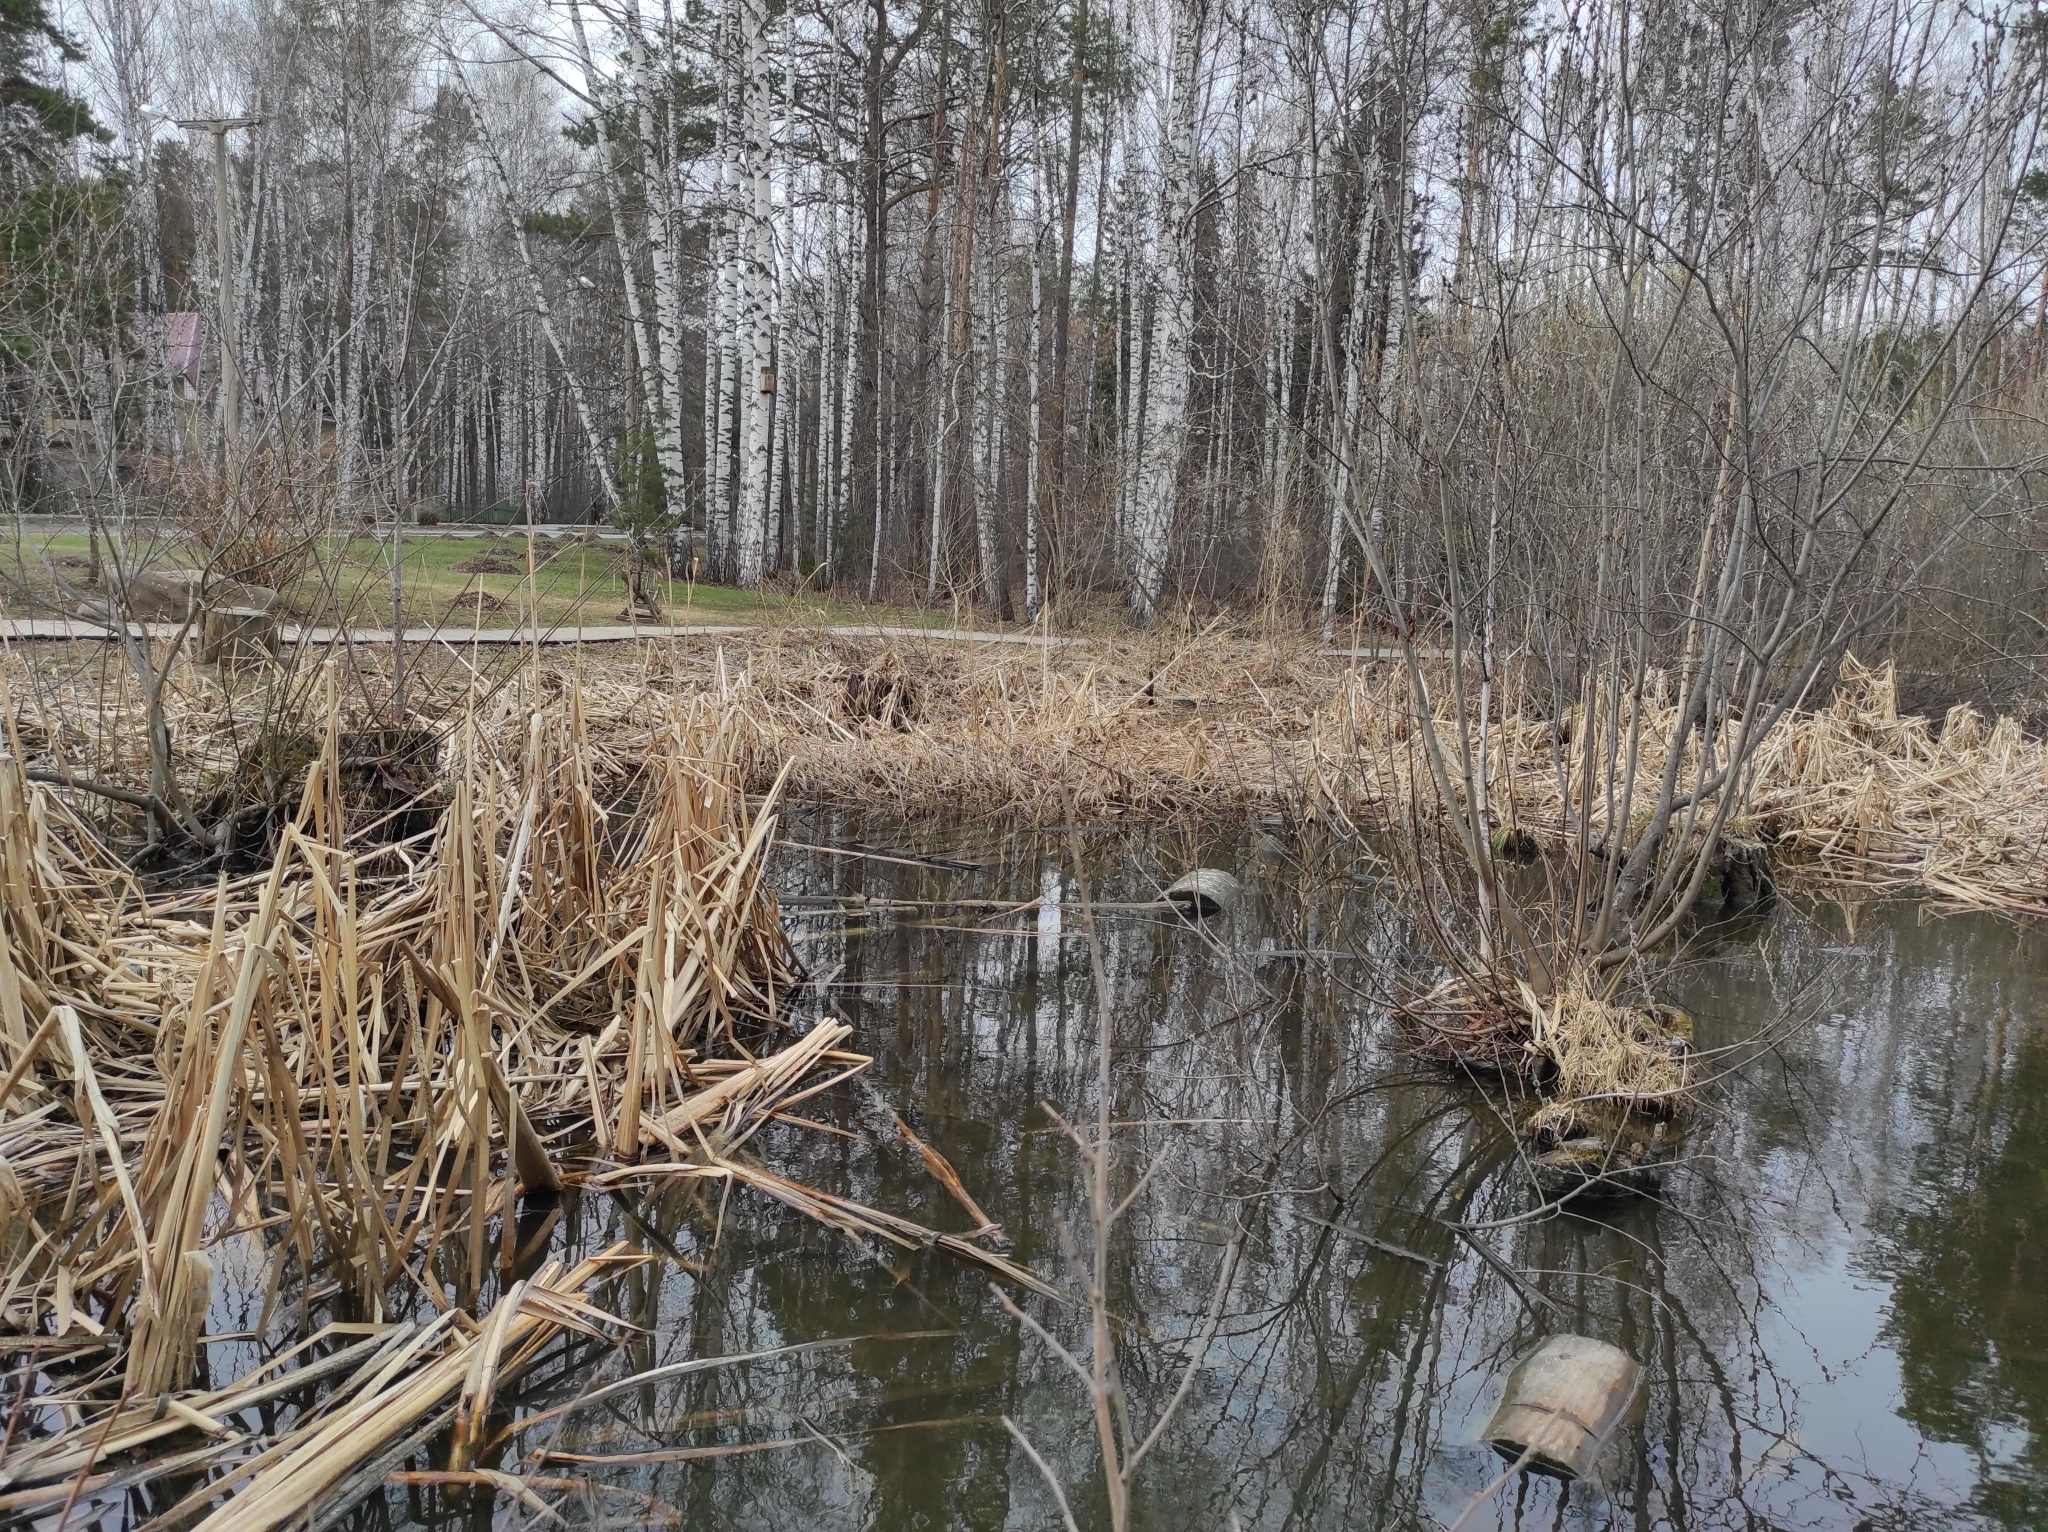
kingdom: Animalia
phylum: Chordata
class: Aves
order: Passeriformes
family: Fringillidae
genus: Fringilla
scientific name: Fringilla coelebs
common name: Common chaffinch
